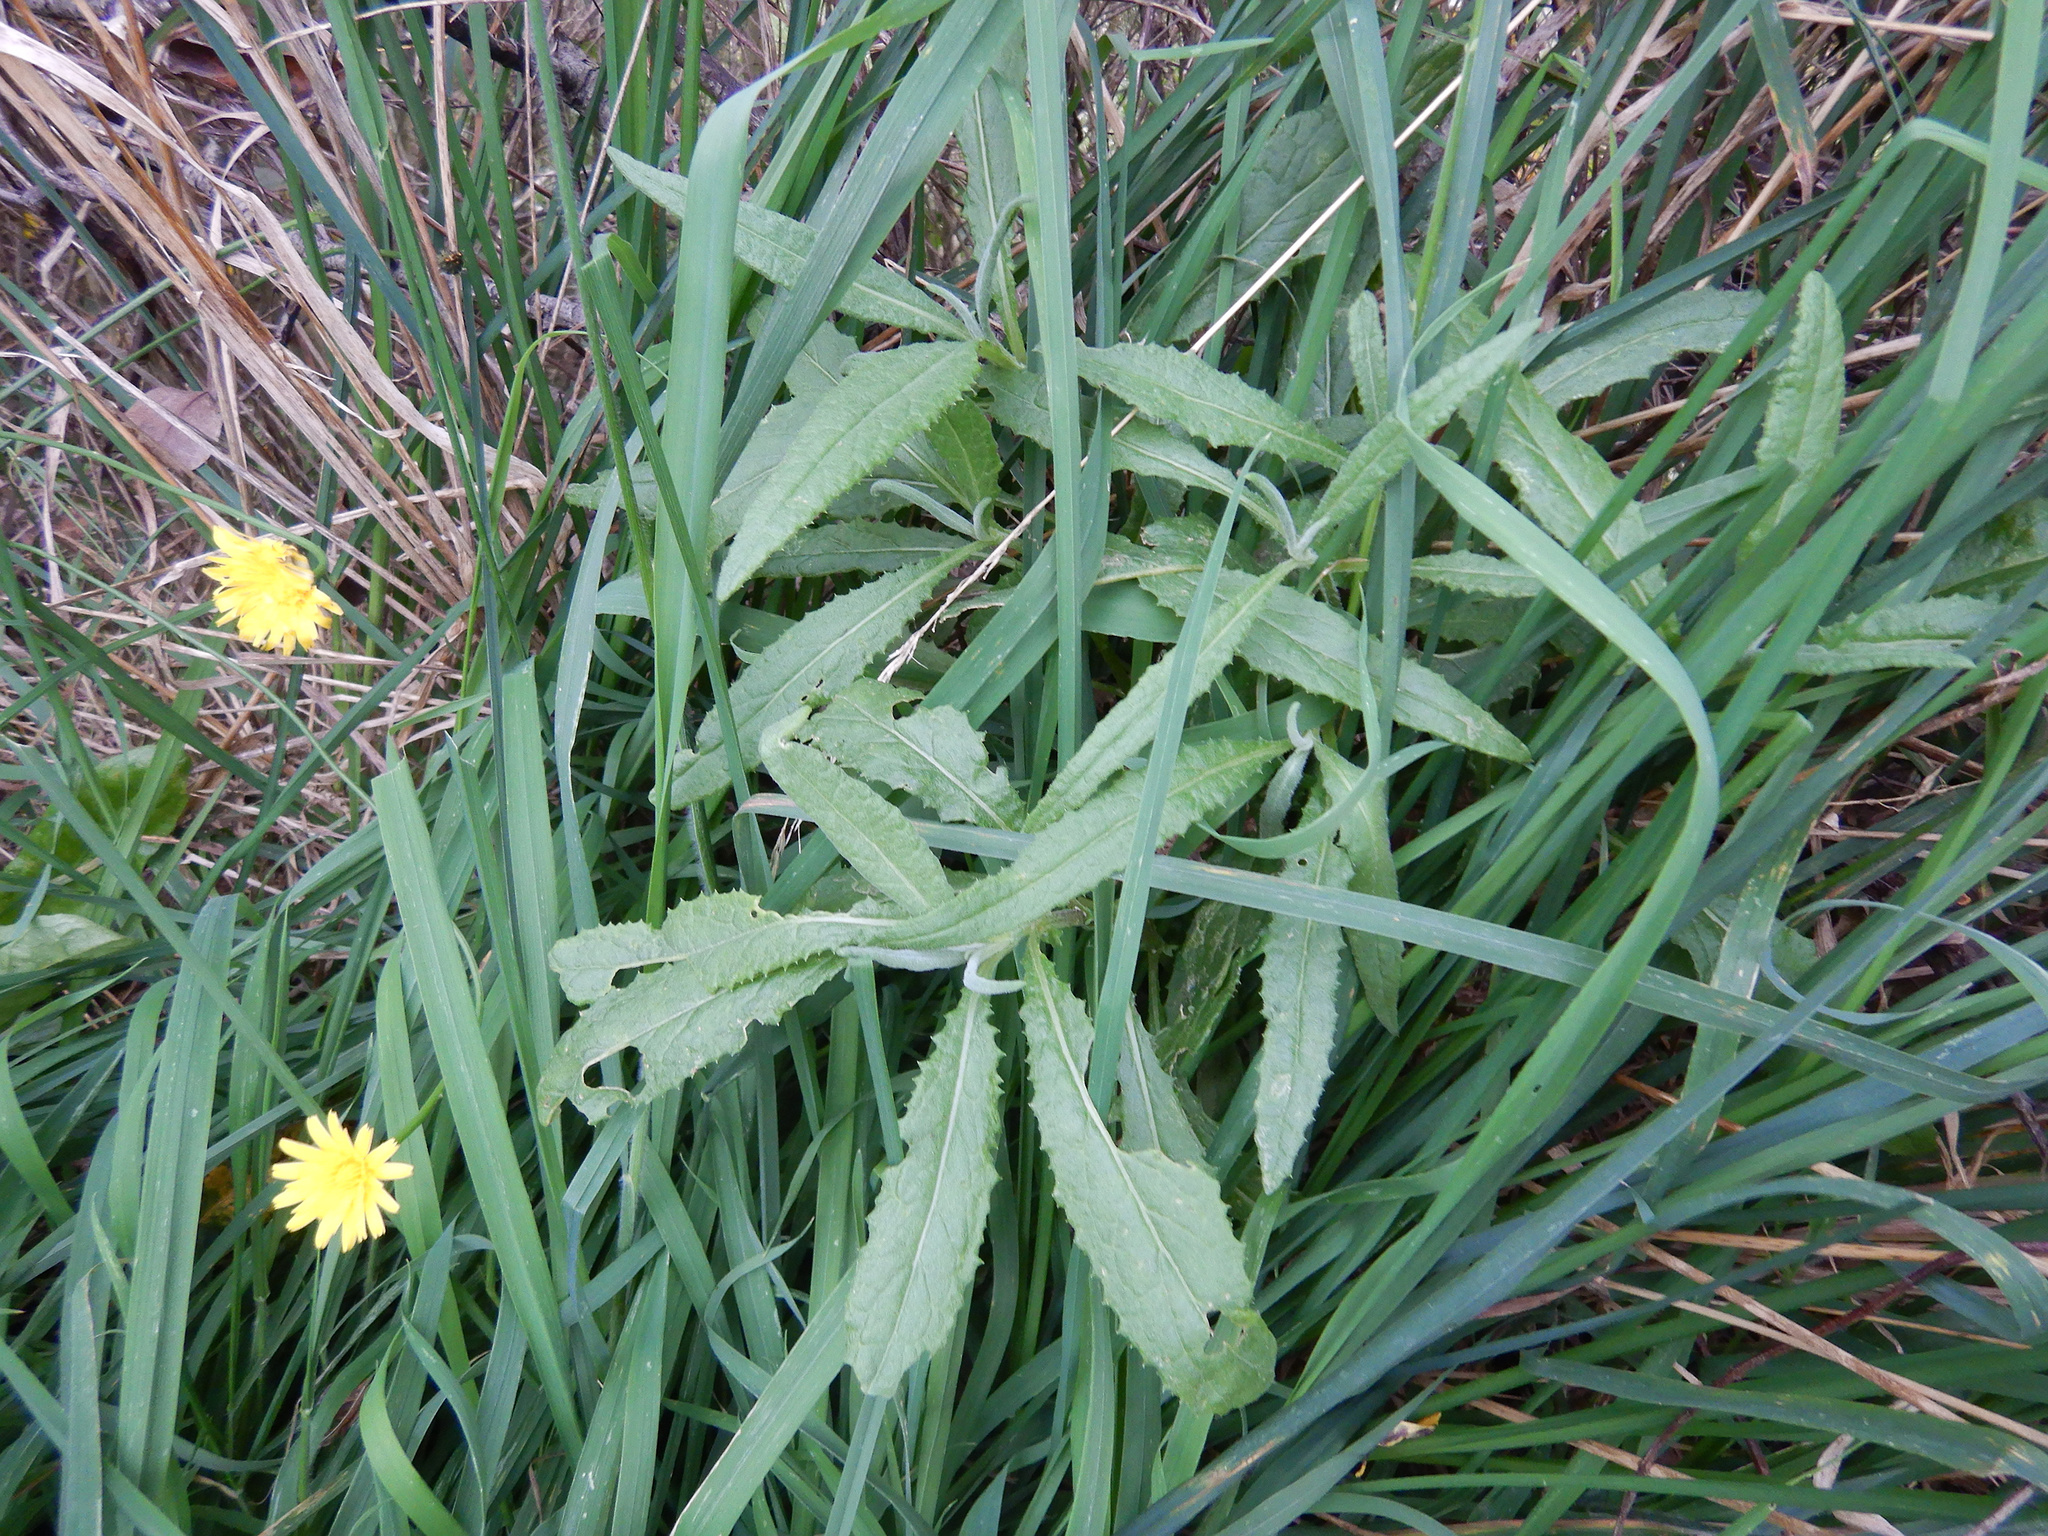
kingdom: Plantae
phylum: Tracheophyta
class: Magnoliopsida
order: Asterales
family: Asteraceae
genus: Senecio
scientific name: Senecio minimus
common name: Toothed fireweed
